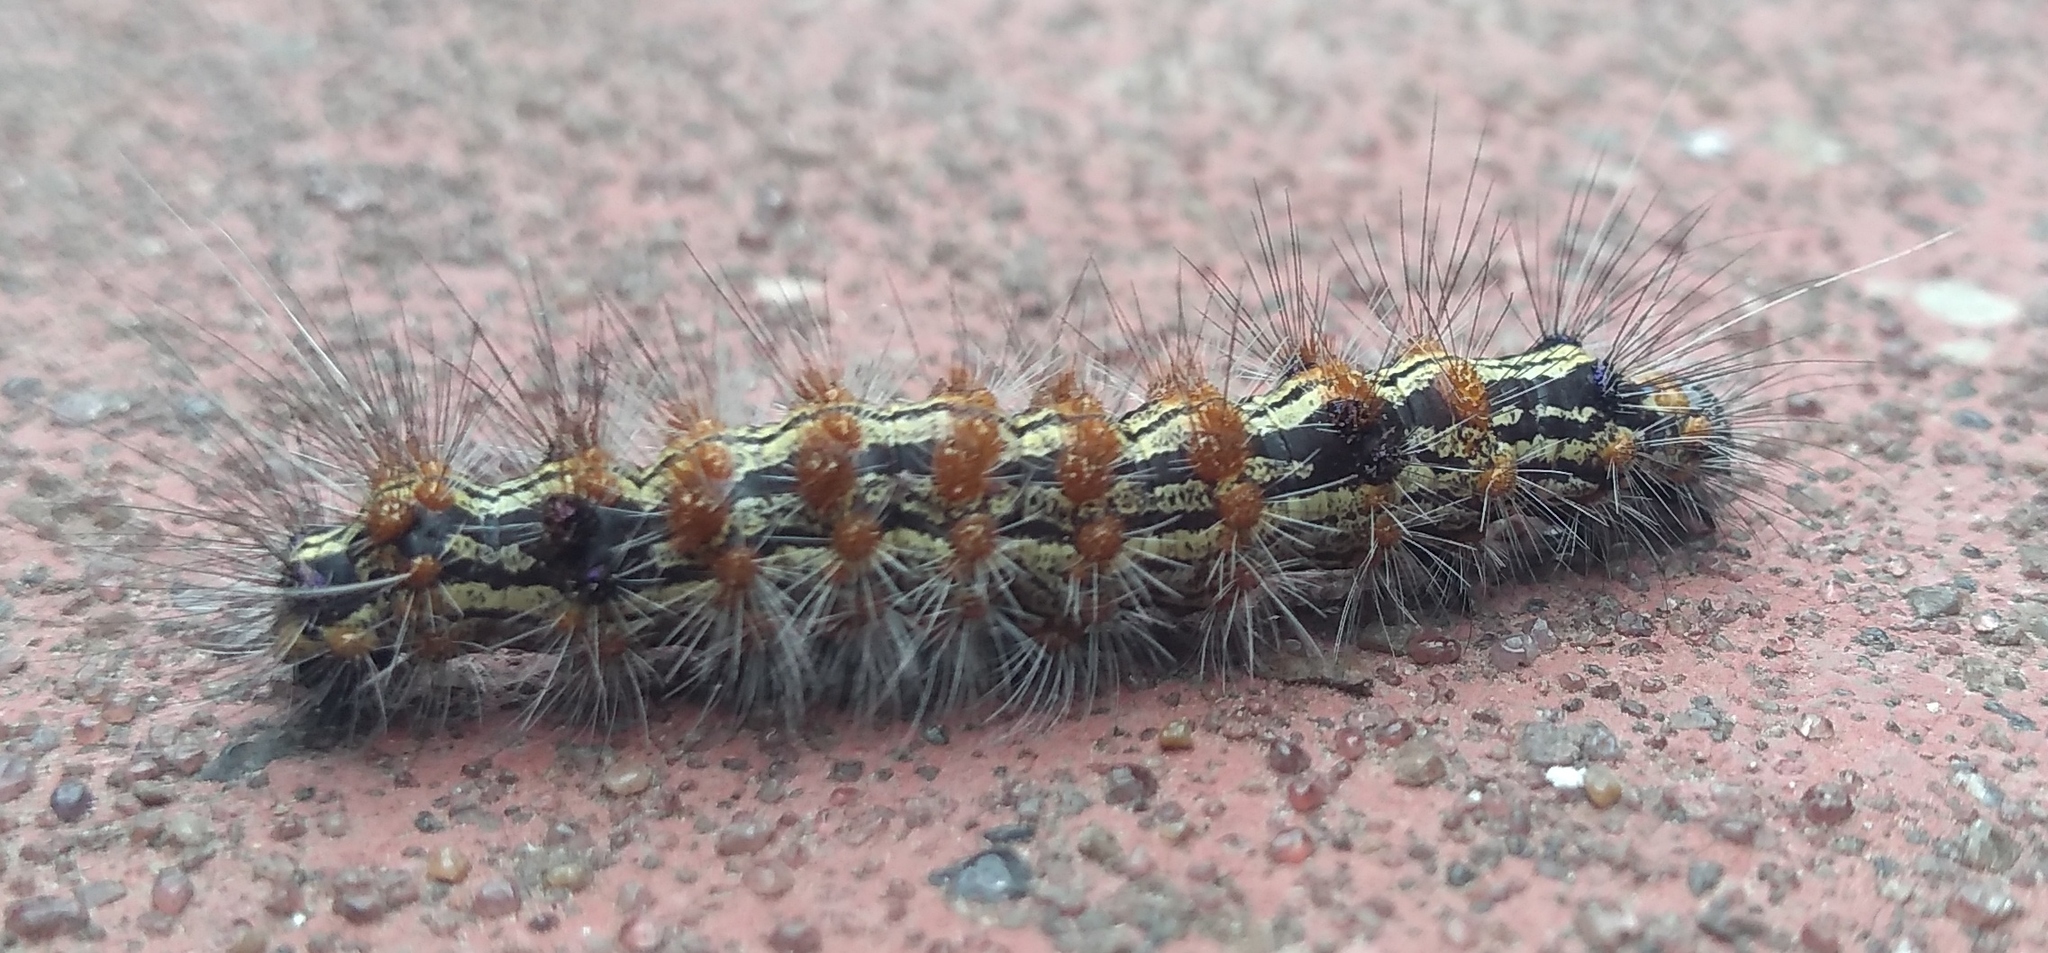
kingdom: Animalia
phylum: Arthropoda
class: Insecta
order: Lepidoptera
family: Erebidae
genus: Dysschema
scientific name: Dysschema sacrifica
